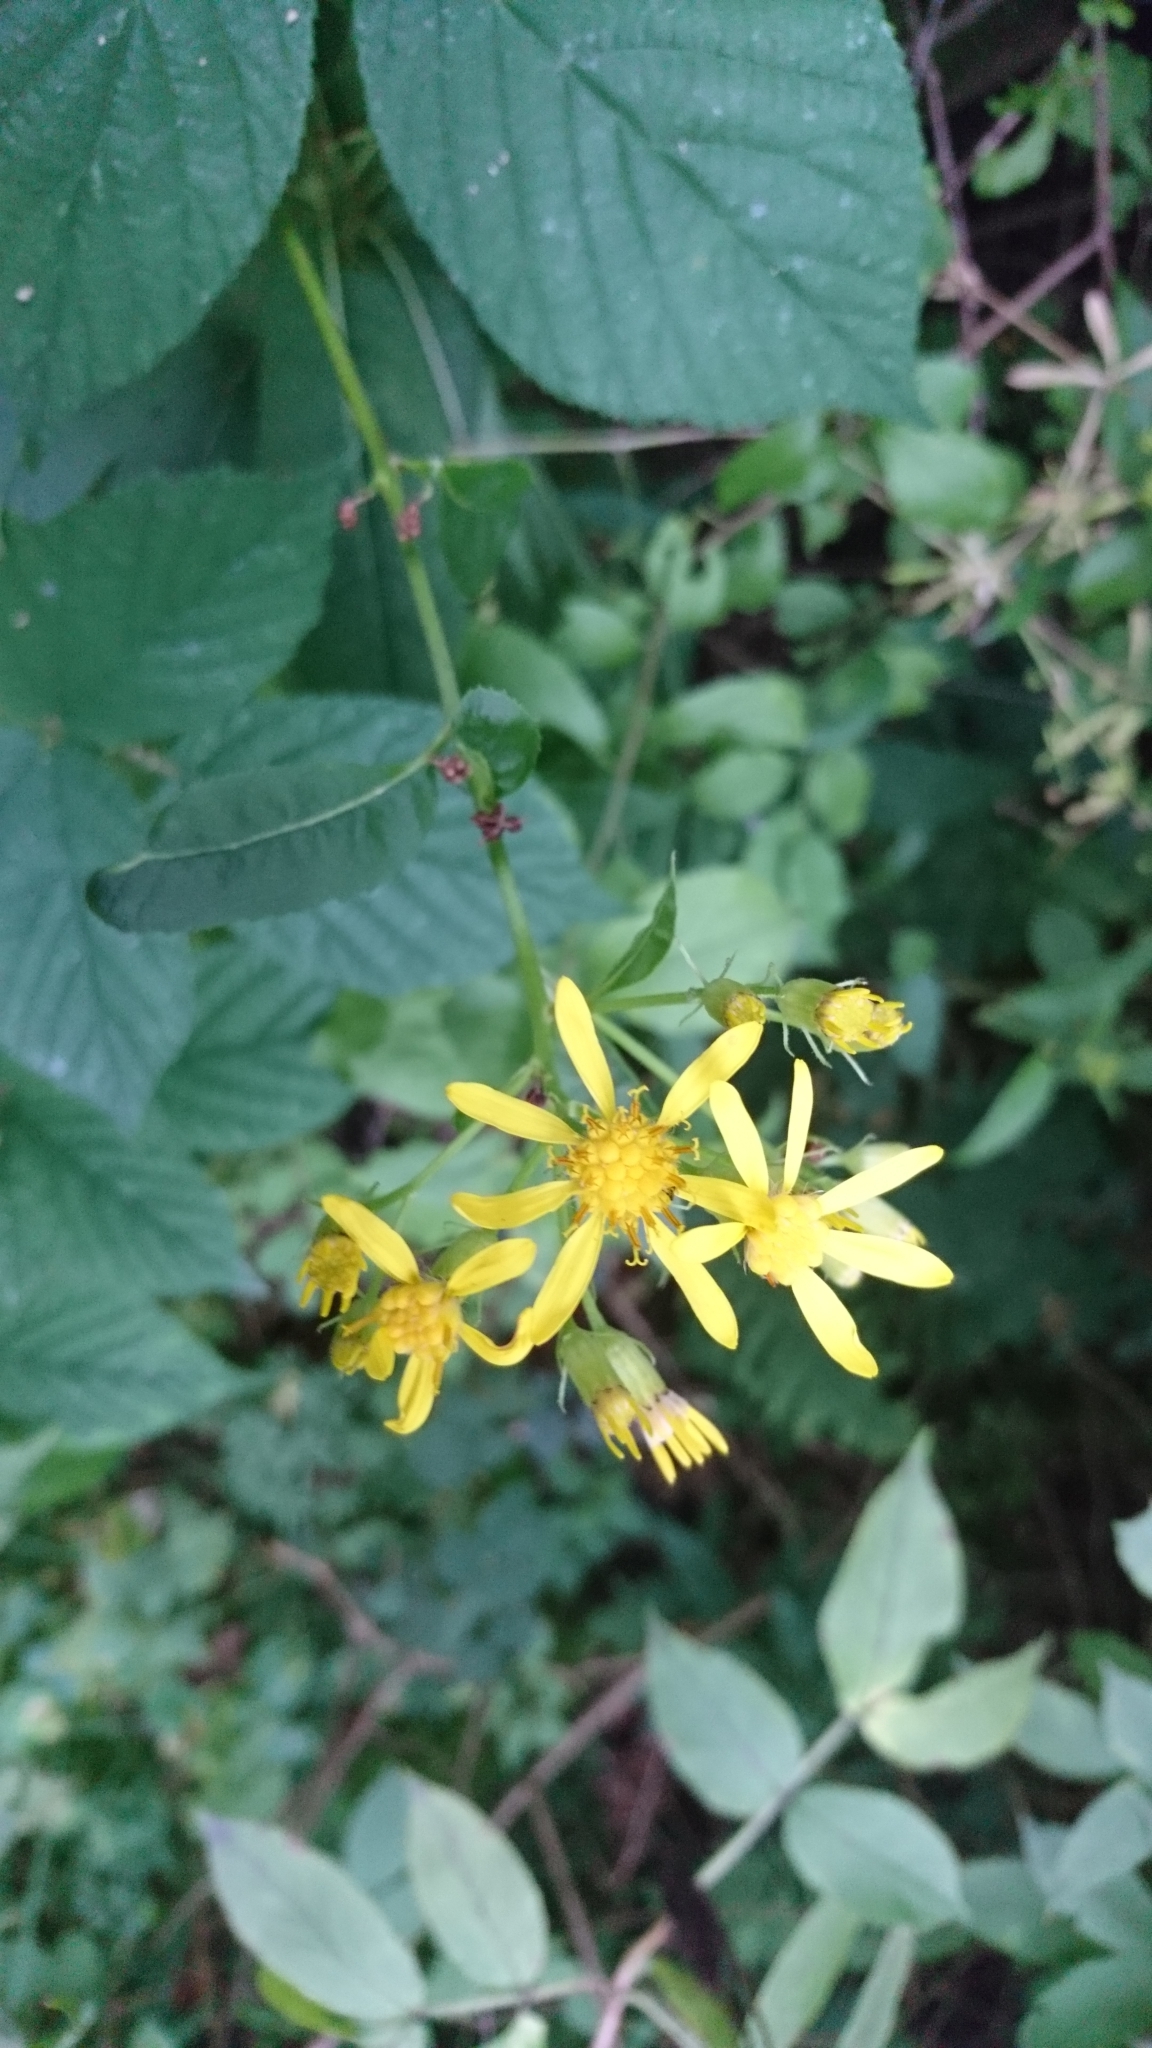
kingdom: Plantae
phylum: Tracheophyta
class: Magnoliopsida
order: Asterales
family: Asteraceae
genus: Senecio
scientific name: Senecio ovatus
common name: Wood ragwort
